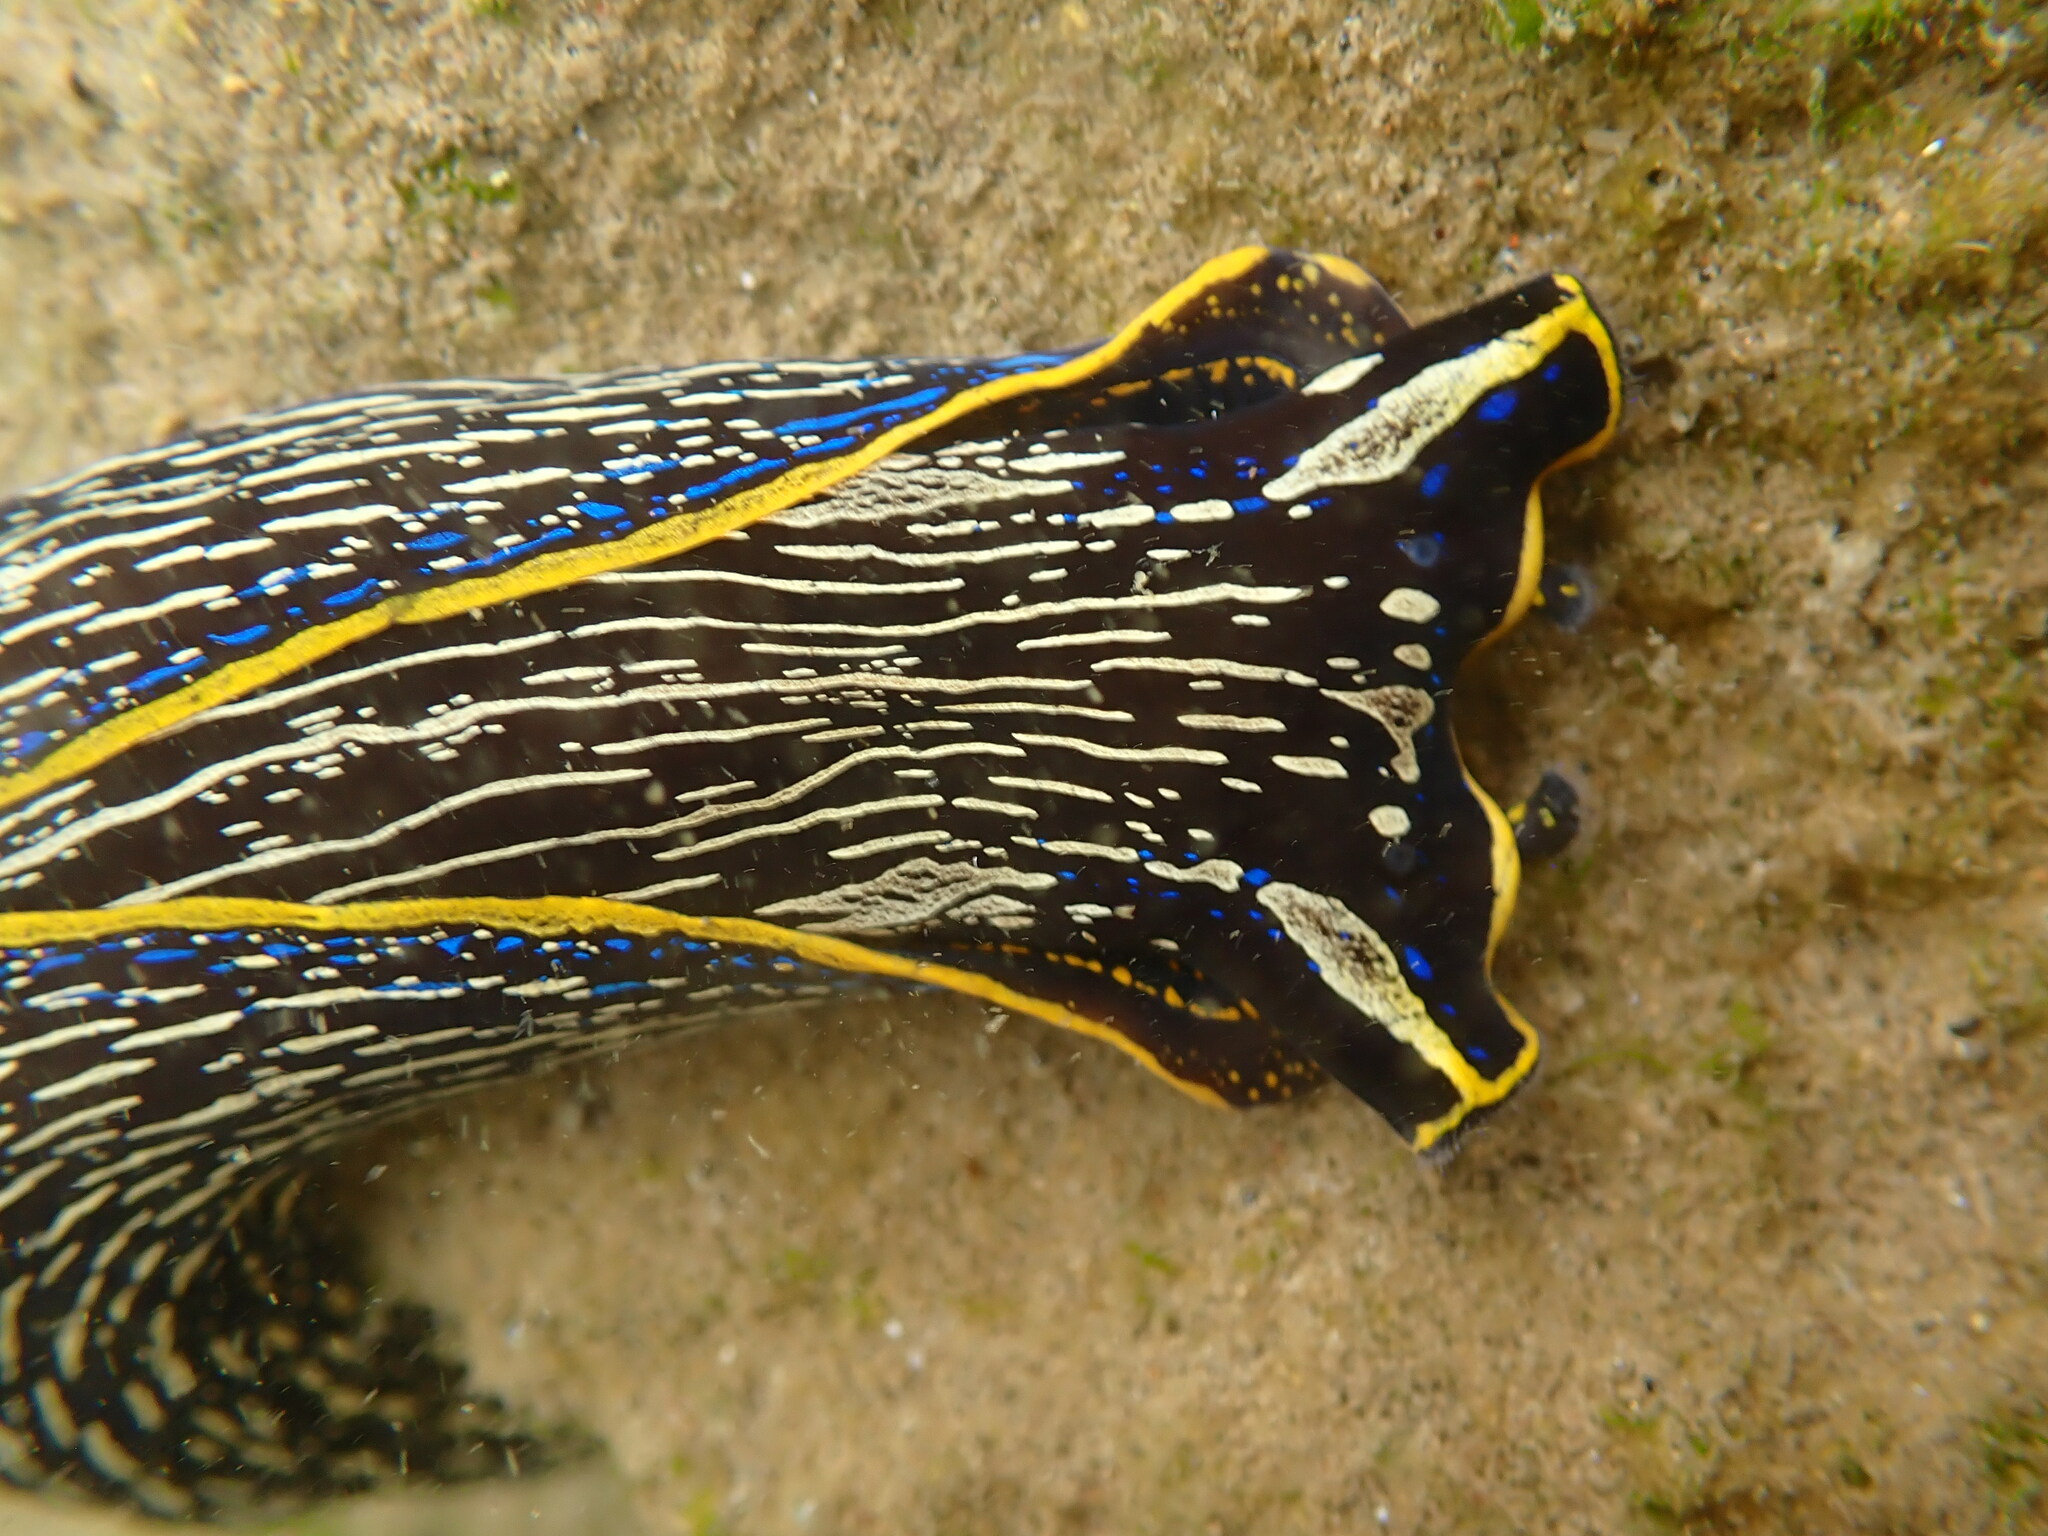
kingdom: Animalia
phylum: Mollusca
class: Gastropoda
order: Cephalaspidea
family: Aglajidae
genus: Navanax
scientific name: Navanax inermis
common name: California aglaja
